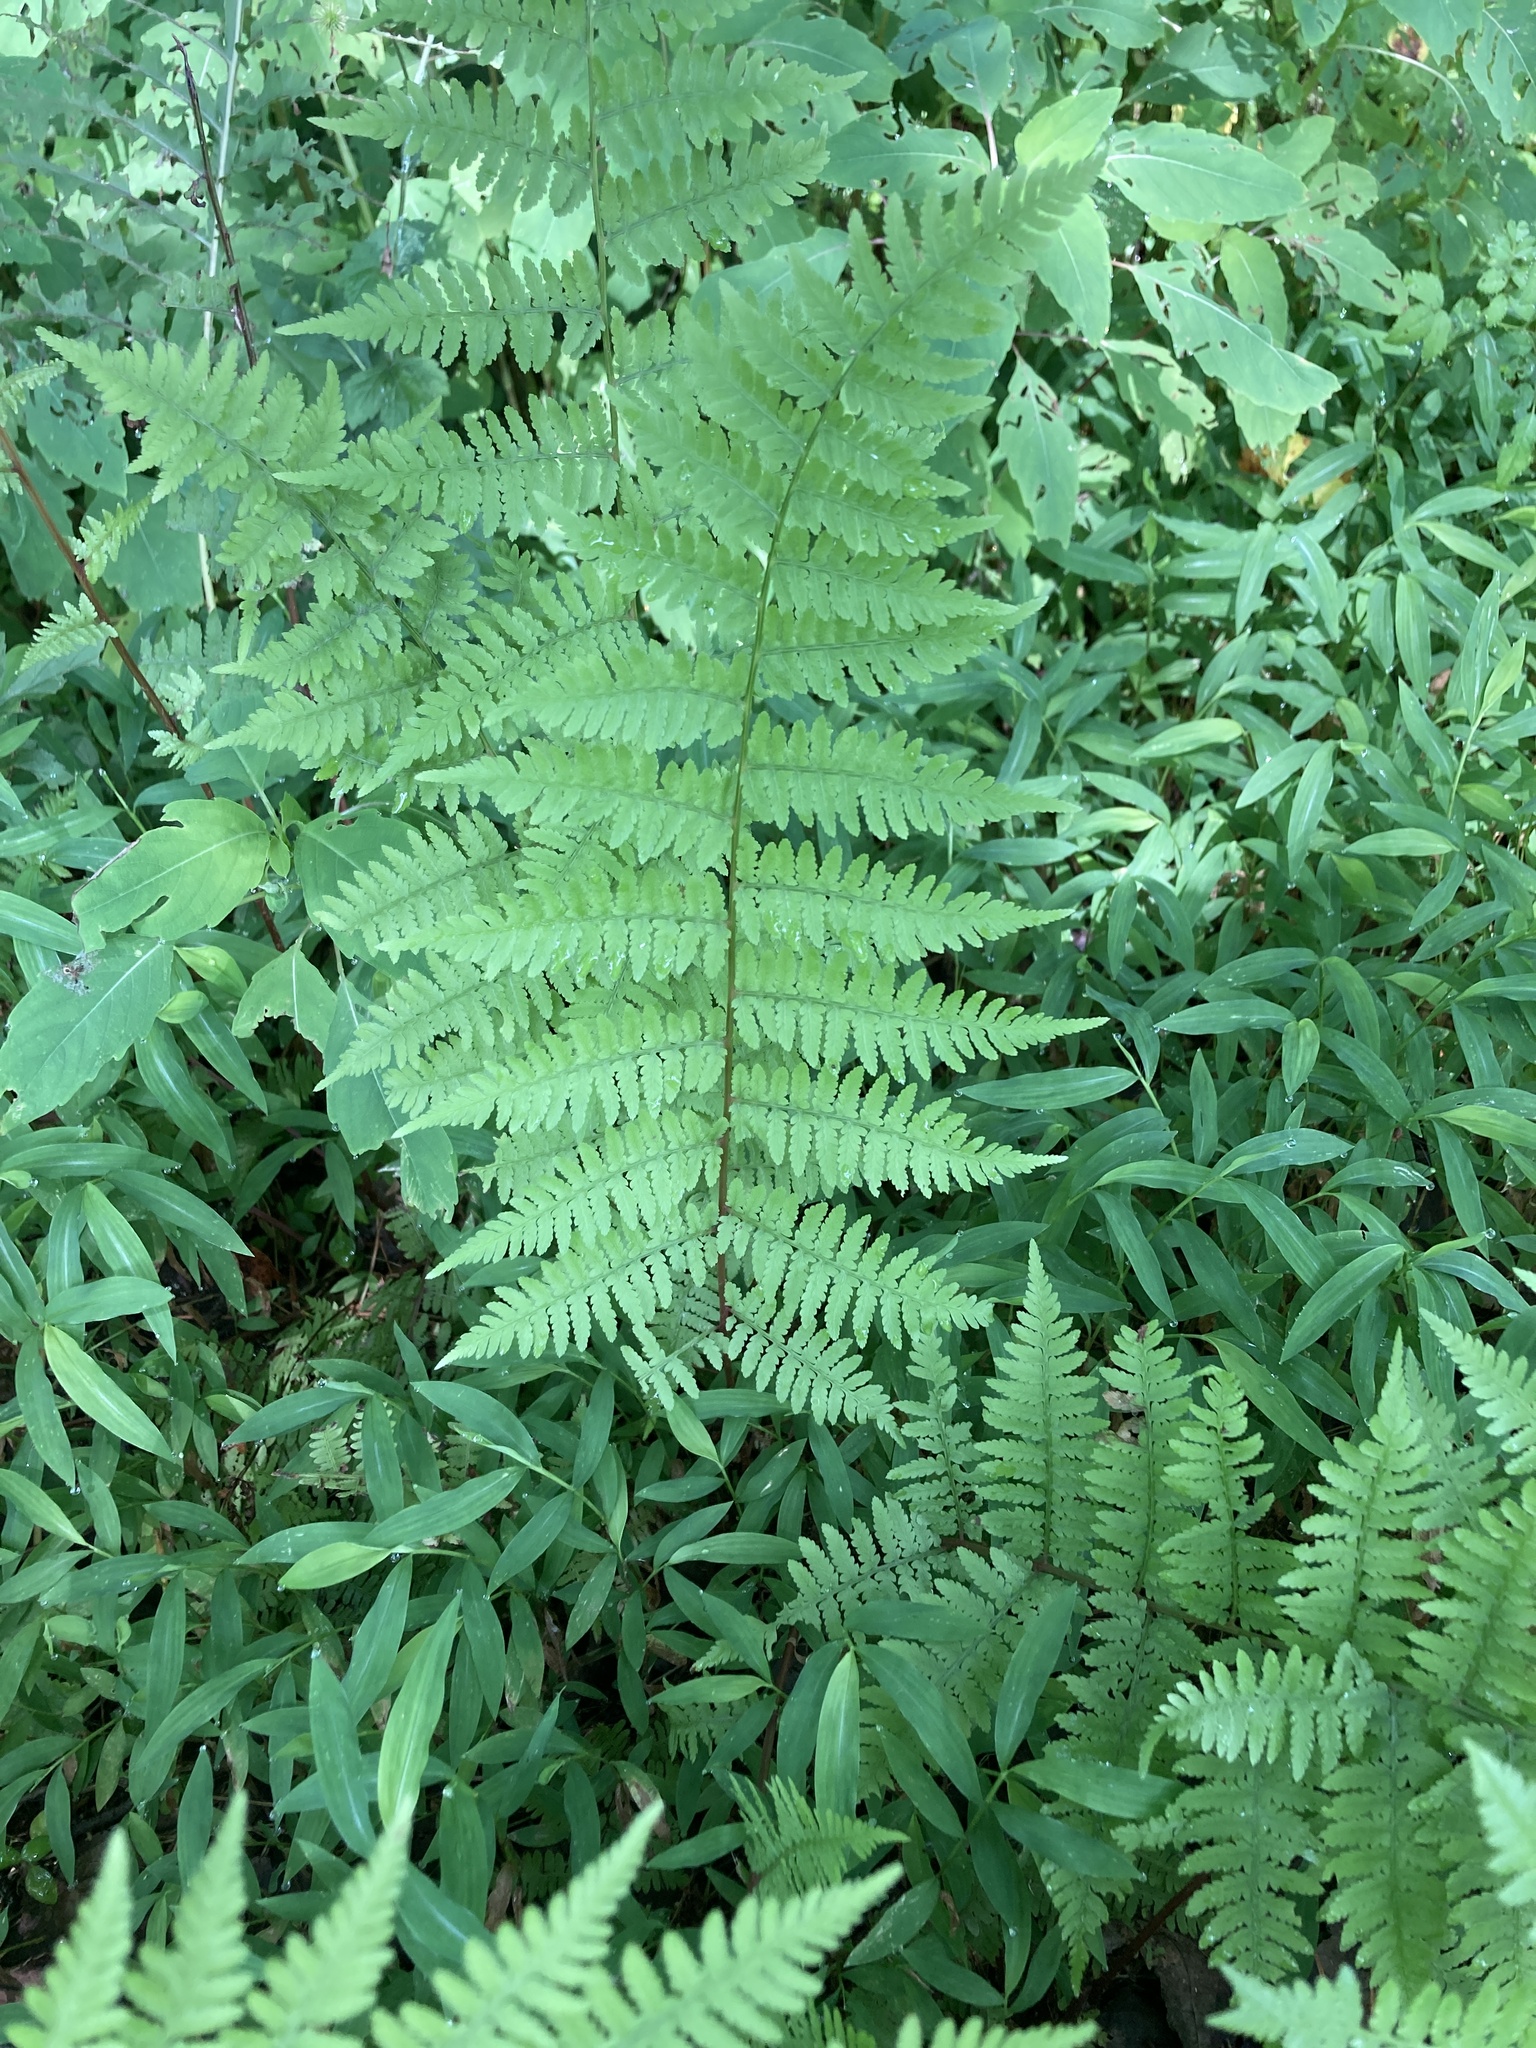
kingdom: Plantae
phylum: Tracheophyta
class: Polypodiopsida
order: Polypodiales
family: Athyriaceae
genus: Athyrium
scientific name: Athyrium asplenioides
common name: Southern lady fern
